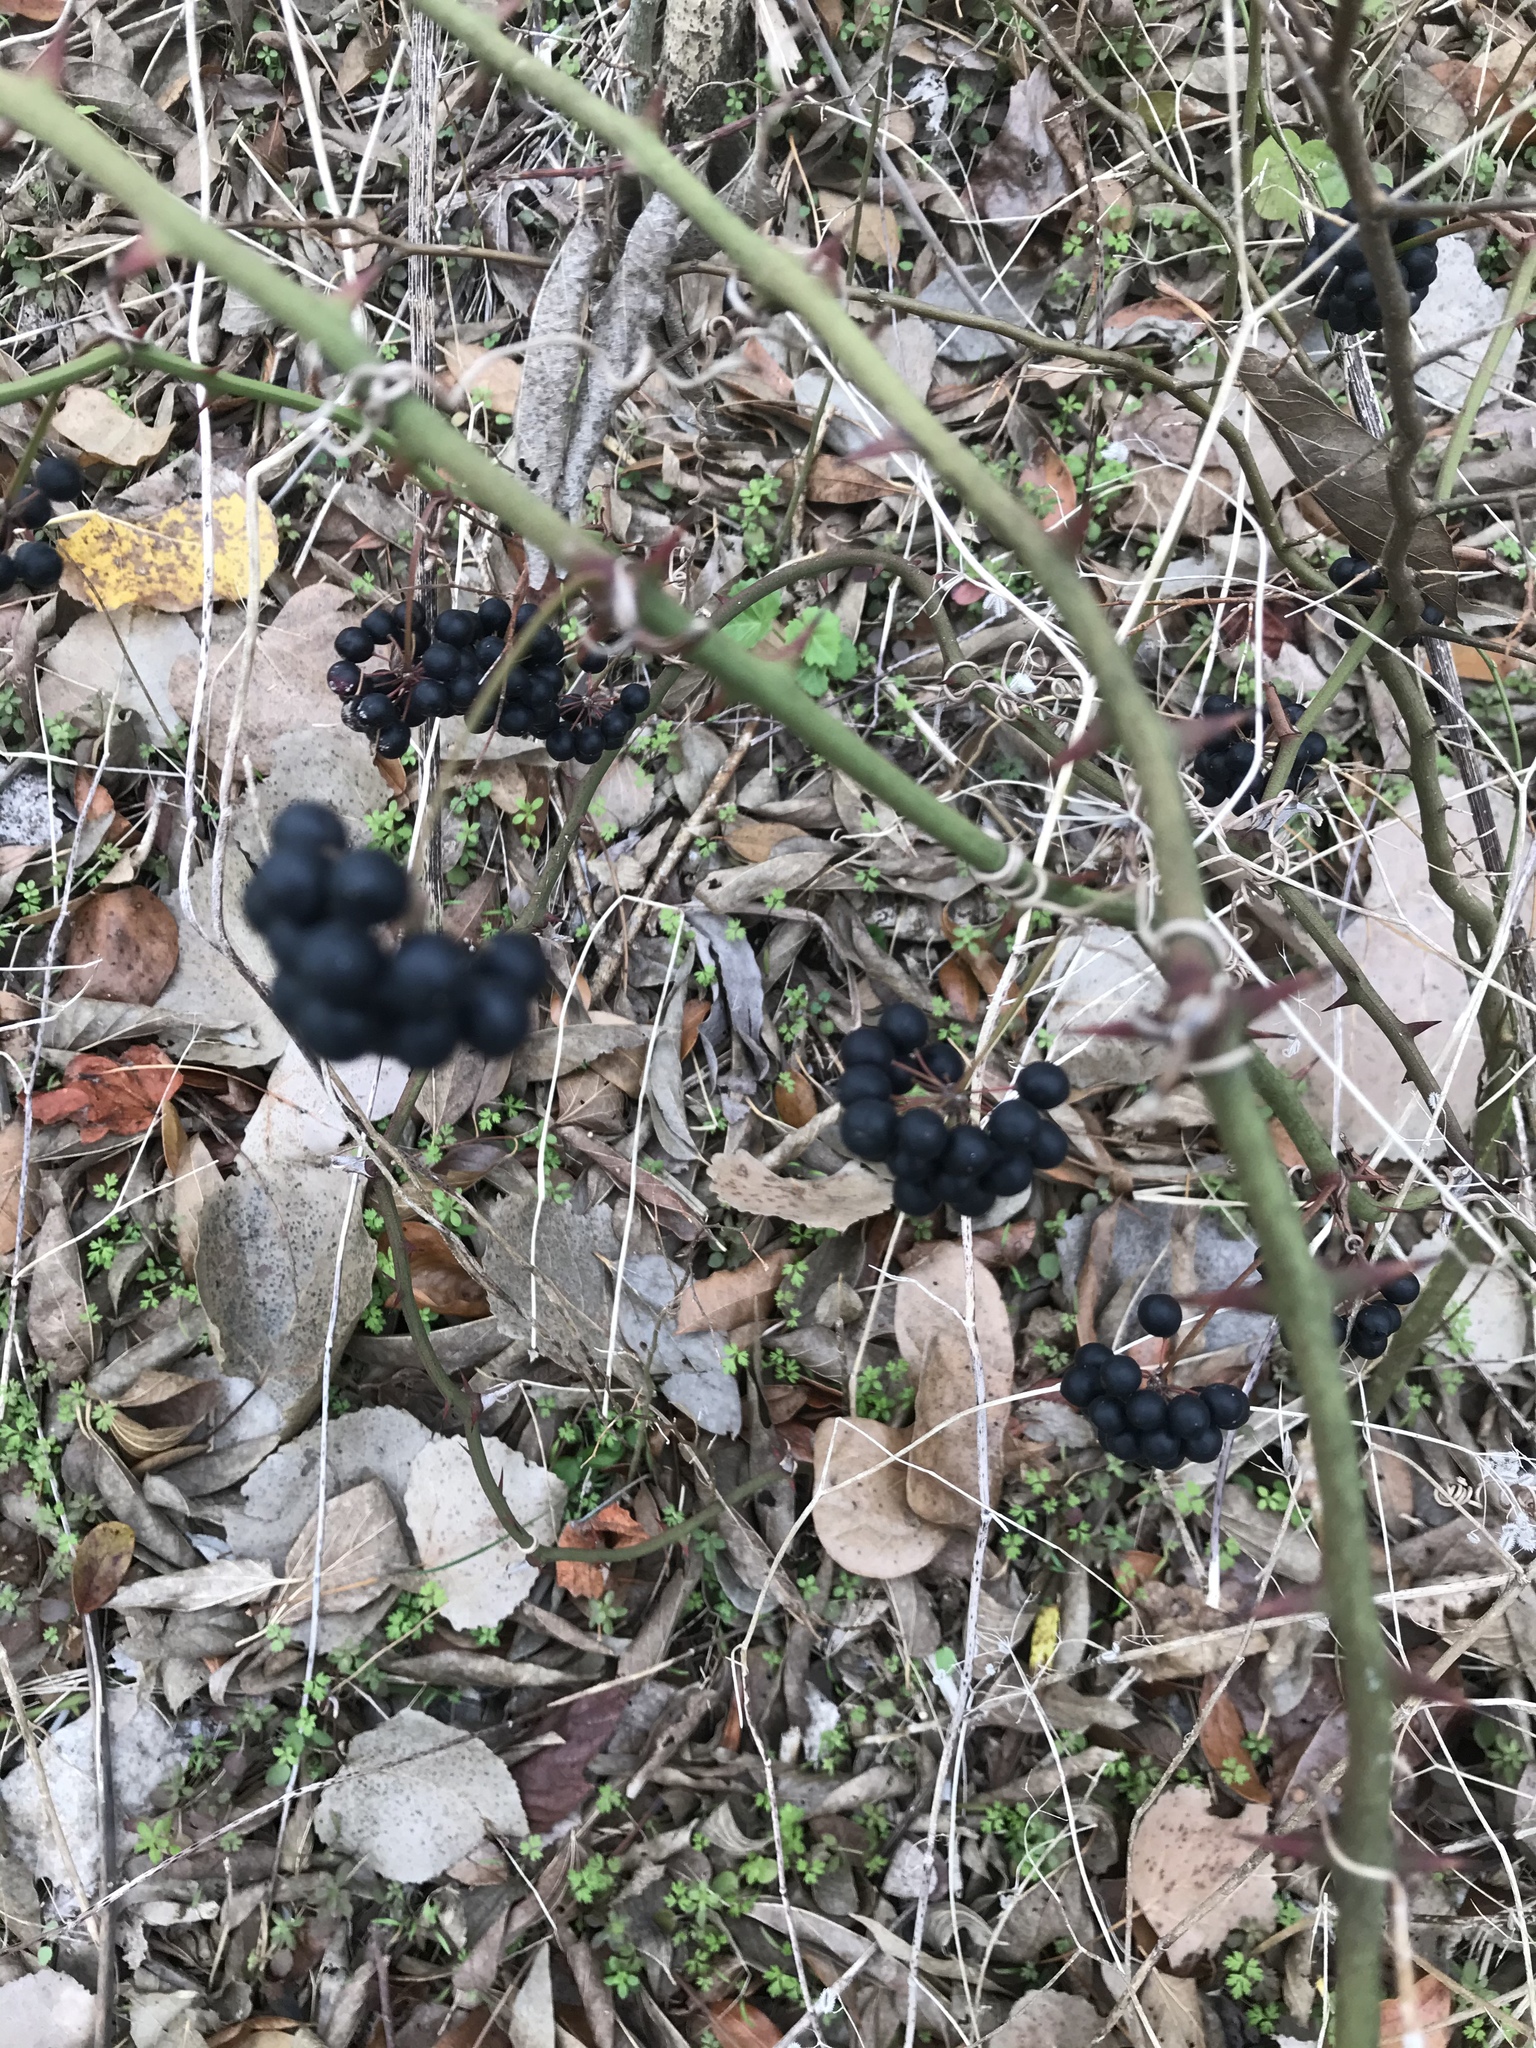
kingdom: Plantae
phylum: Tracheophyta
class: Liliopsida
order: Liliales
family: Smilacaceae
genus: Smilax
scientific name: Smilax bona-nox
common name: Catbrier
